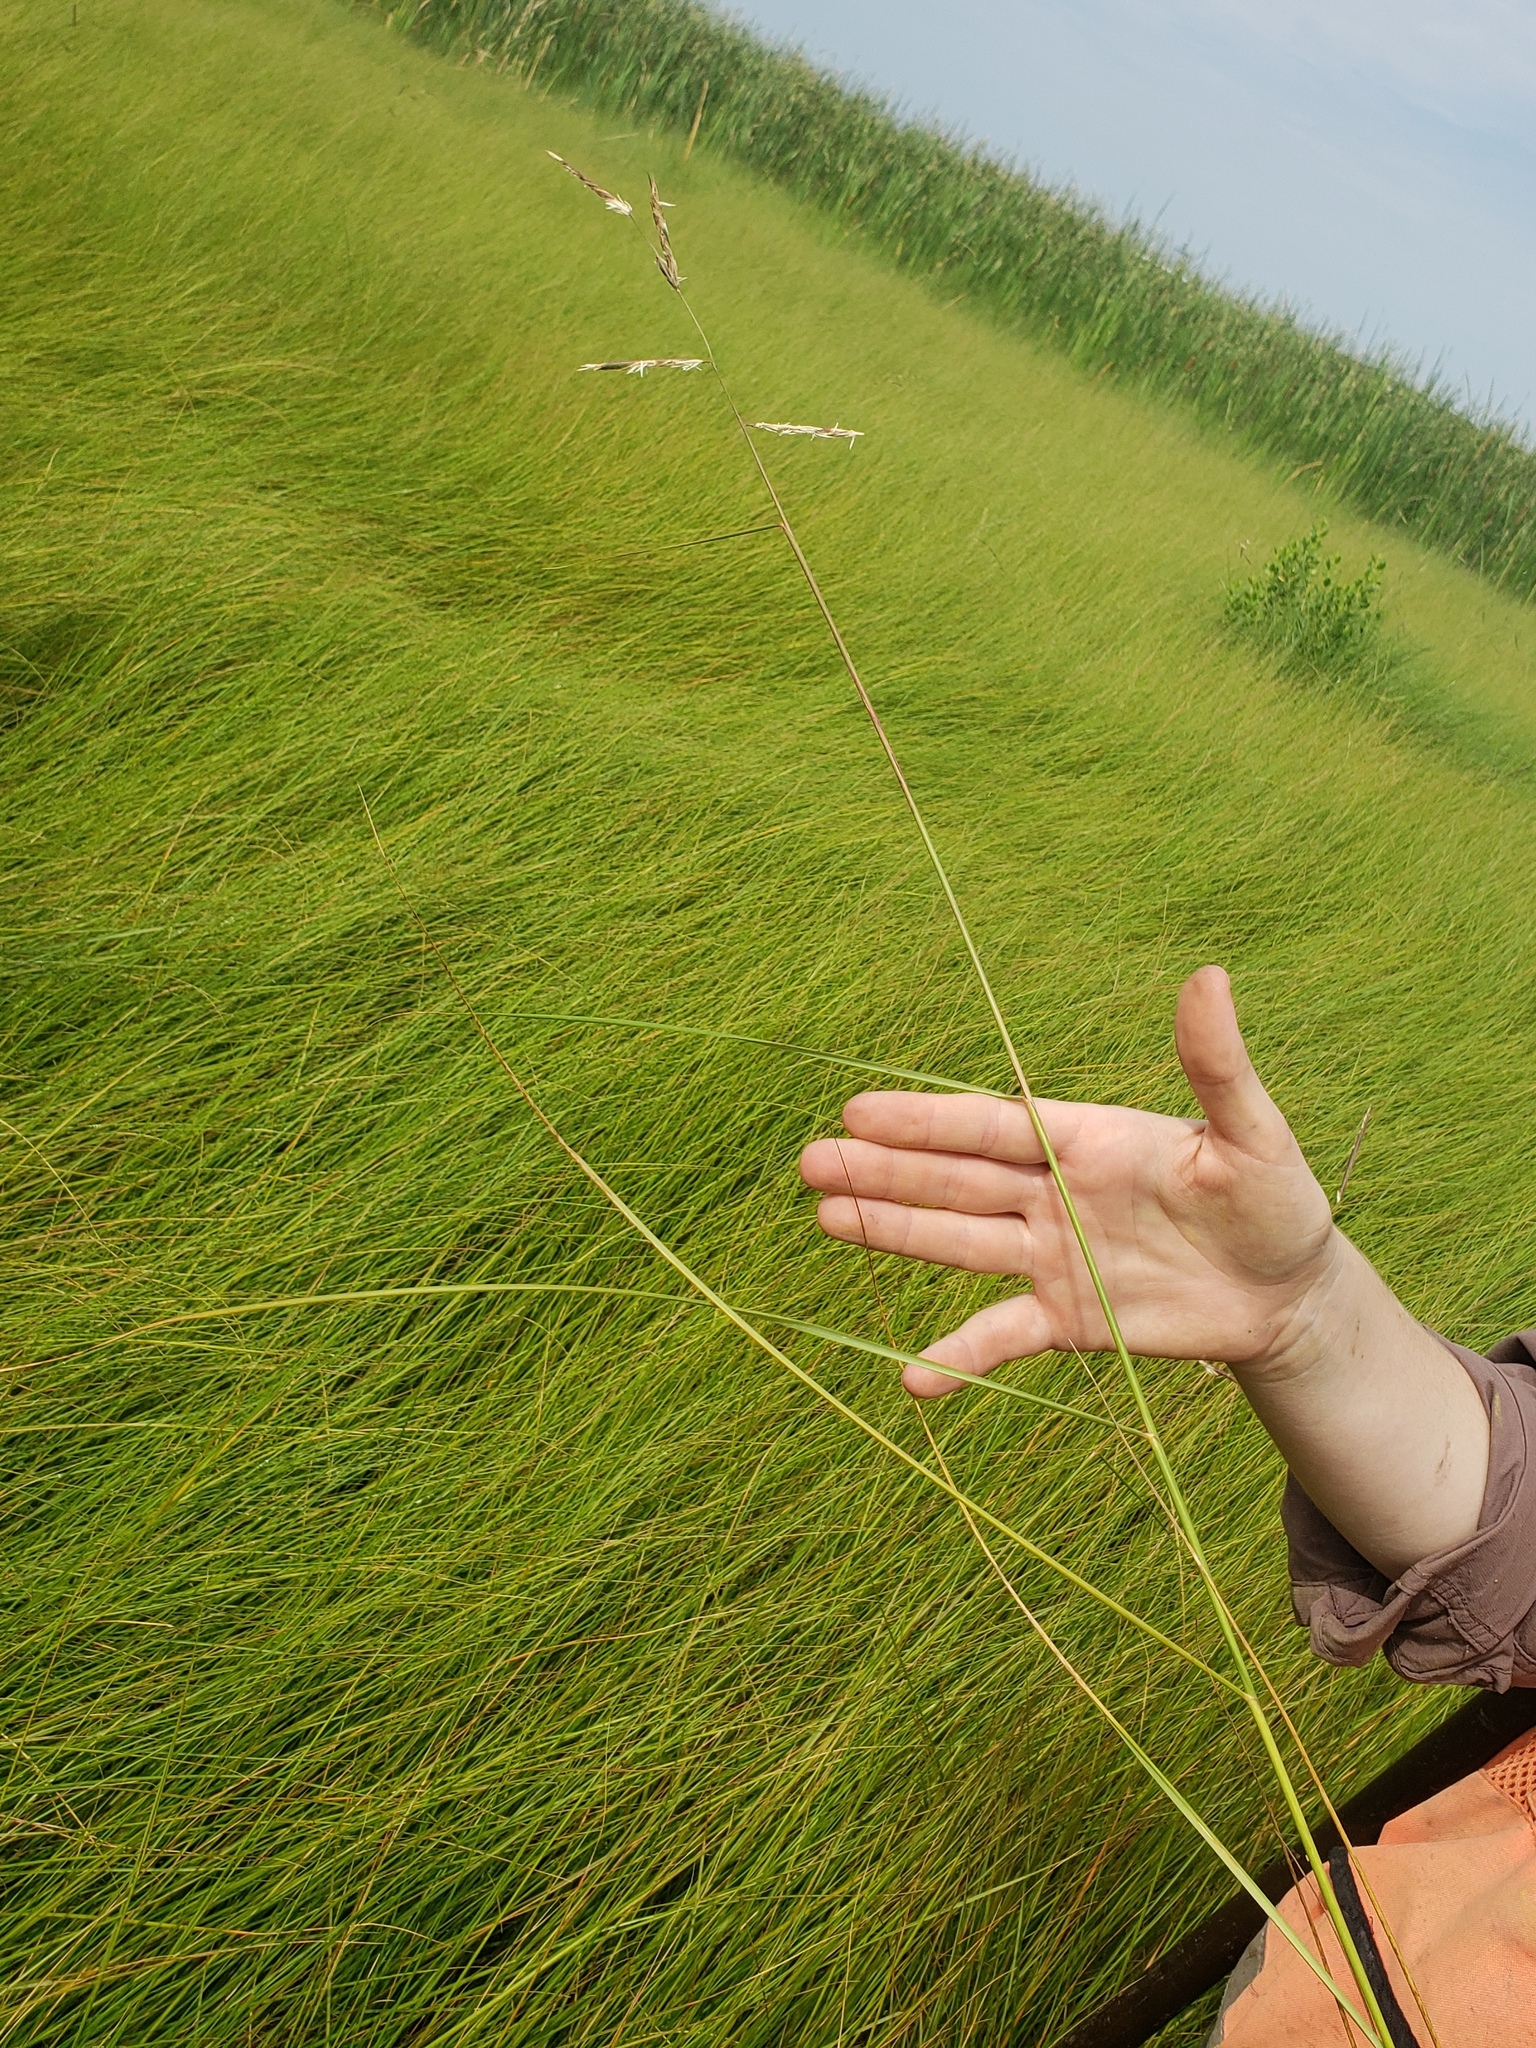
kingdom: Plantae
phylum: Tracheophyta
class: Liliopsida
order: Poales
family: Poaceae
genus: Sporobolus
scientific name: Sporobolus pumilus
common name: Highwater grass
